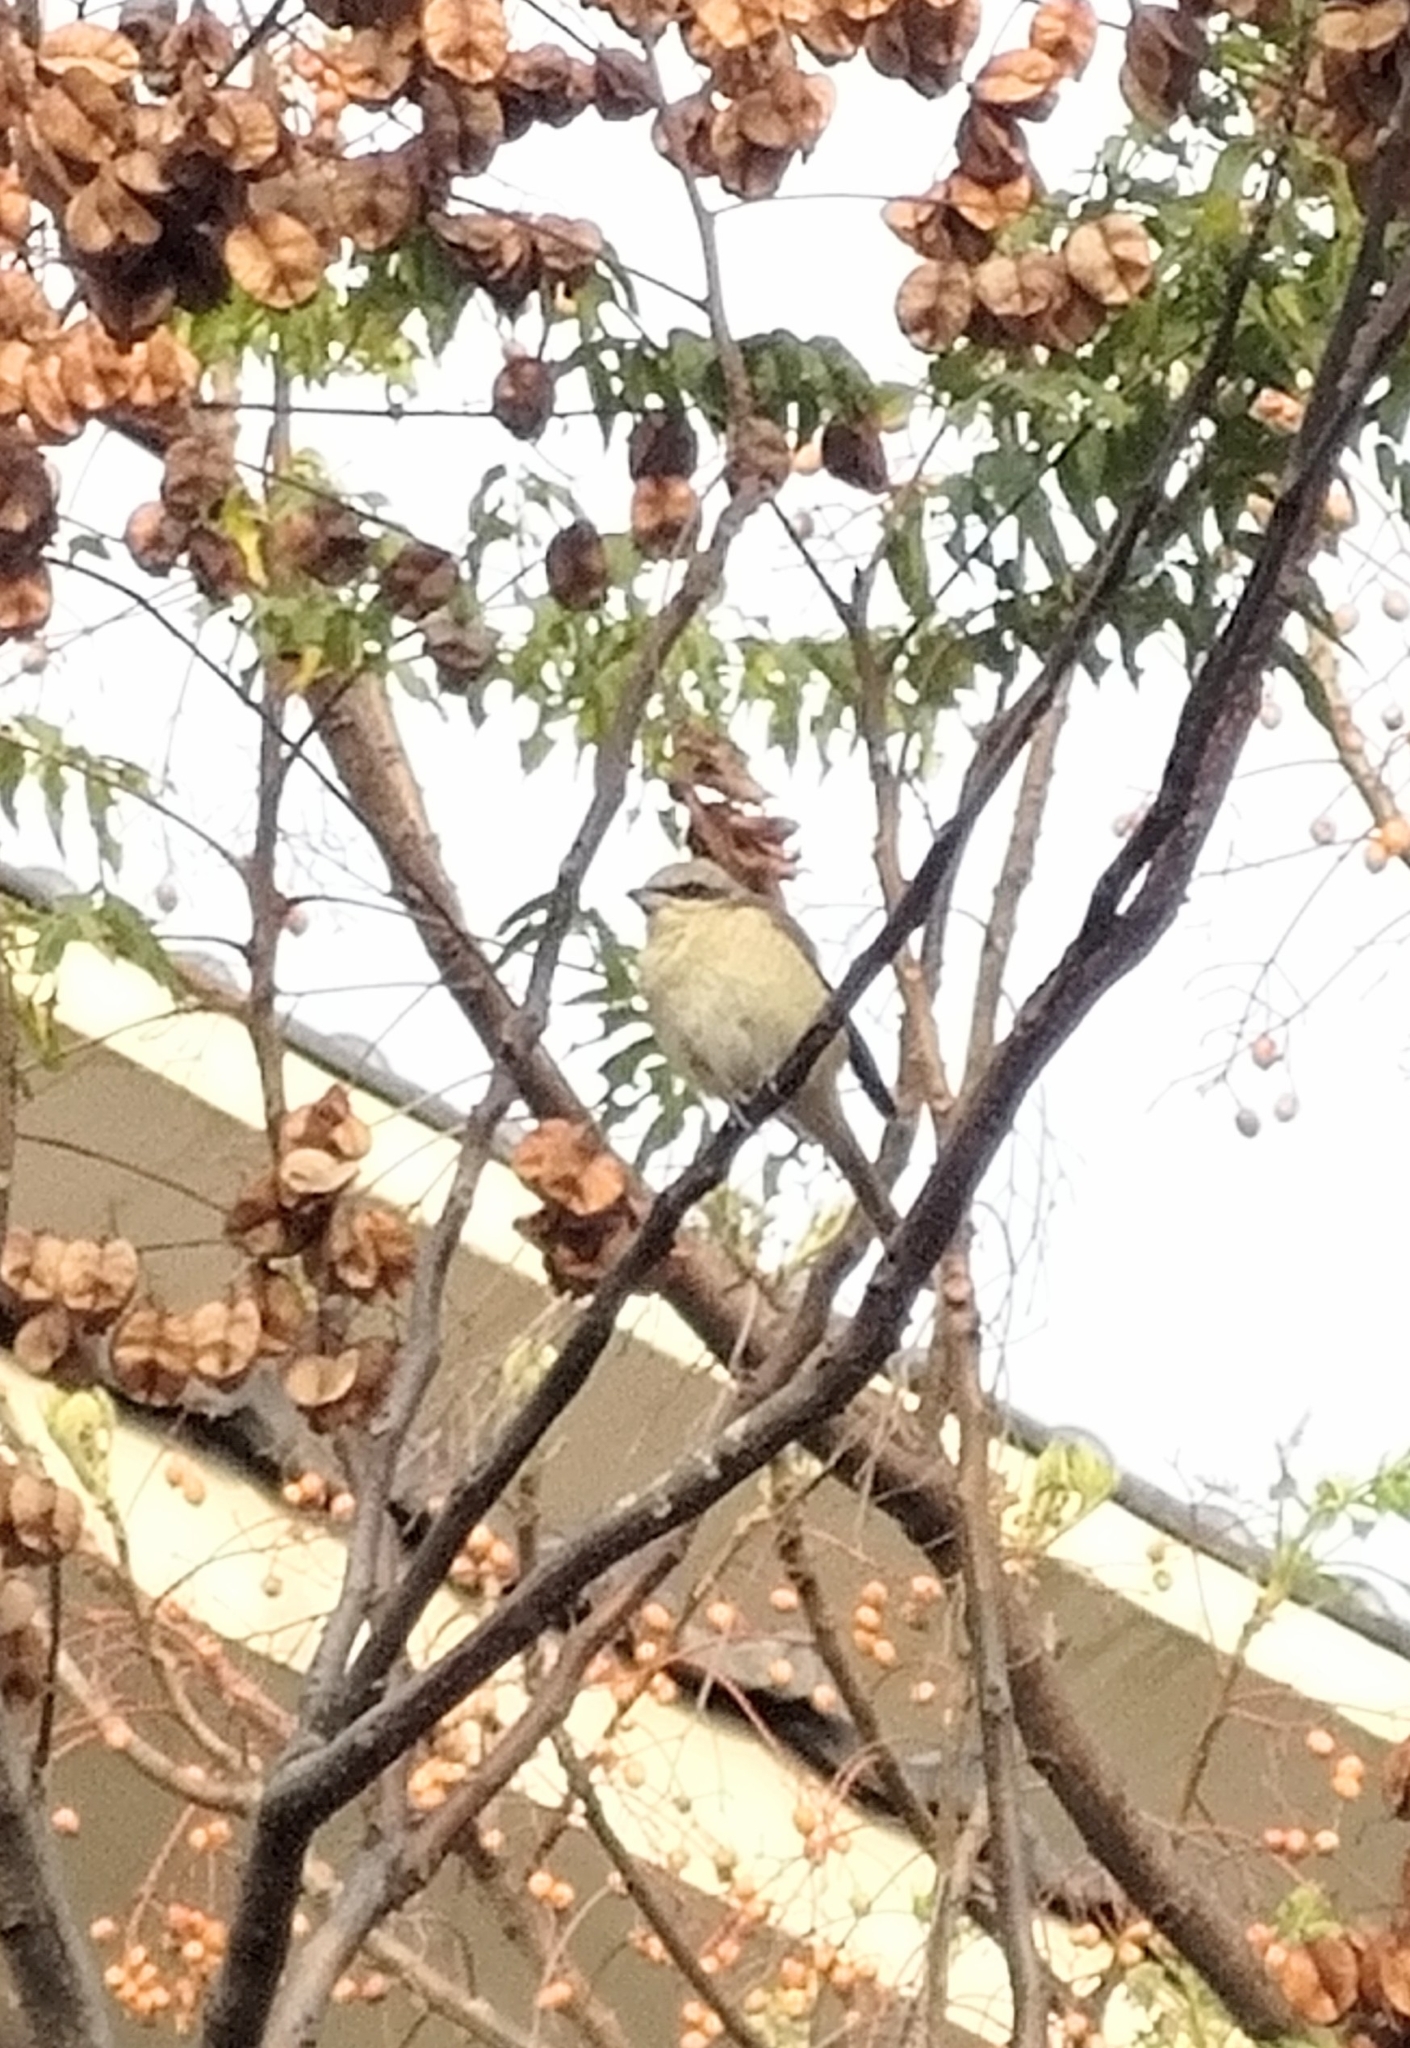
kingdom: Animalia
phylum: Chordata
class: Aves
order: Passeriformes
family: Laniidae
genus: Lanius
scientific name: Lanius cristatus
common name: Brown shrike
